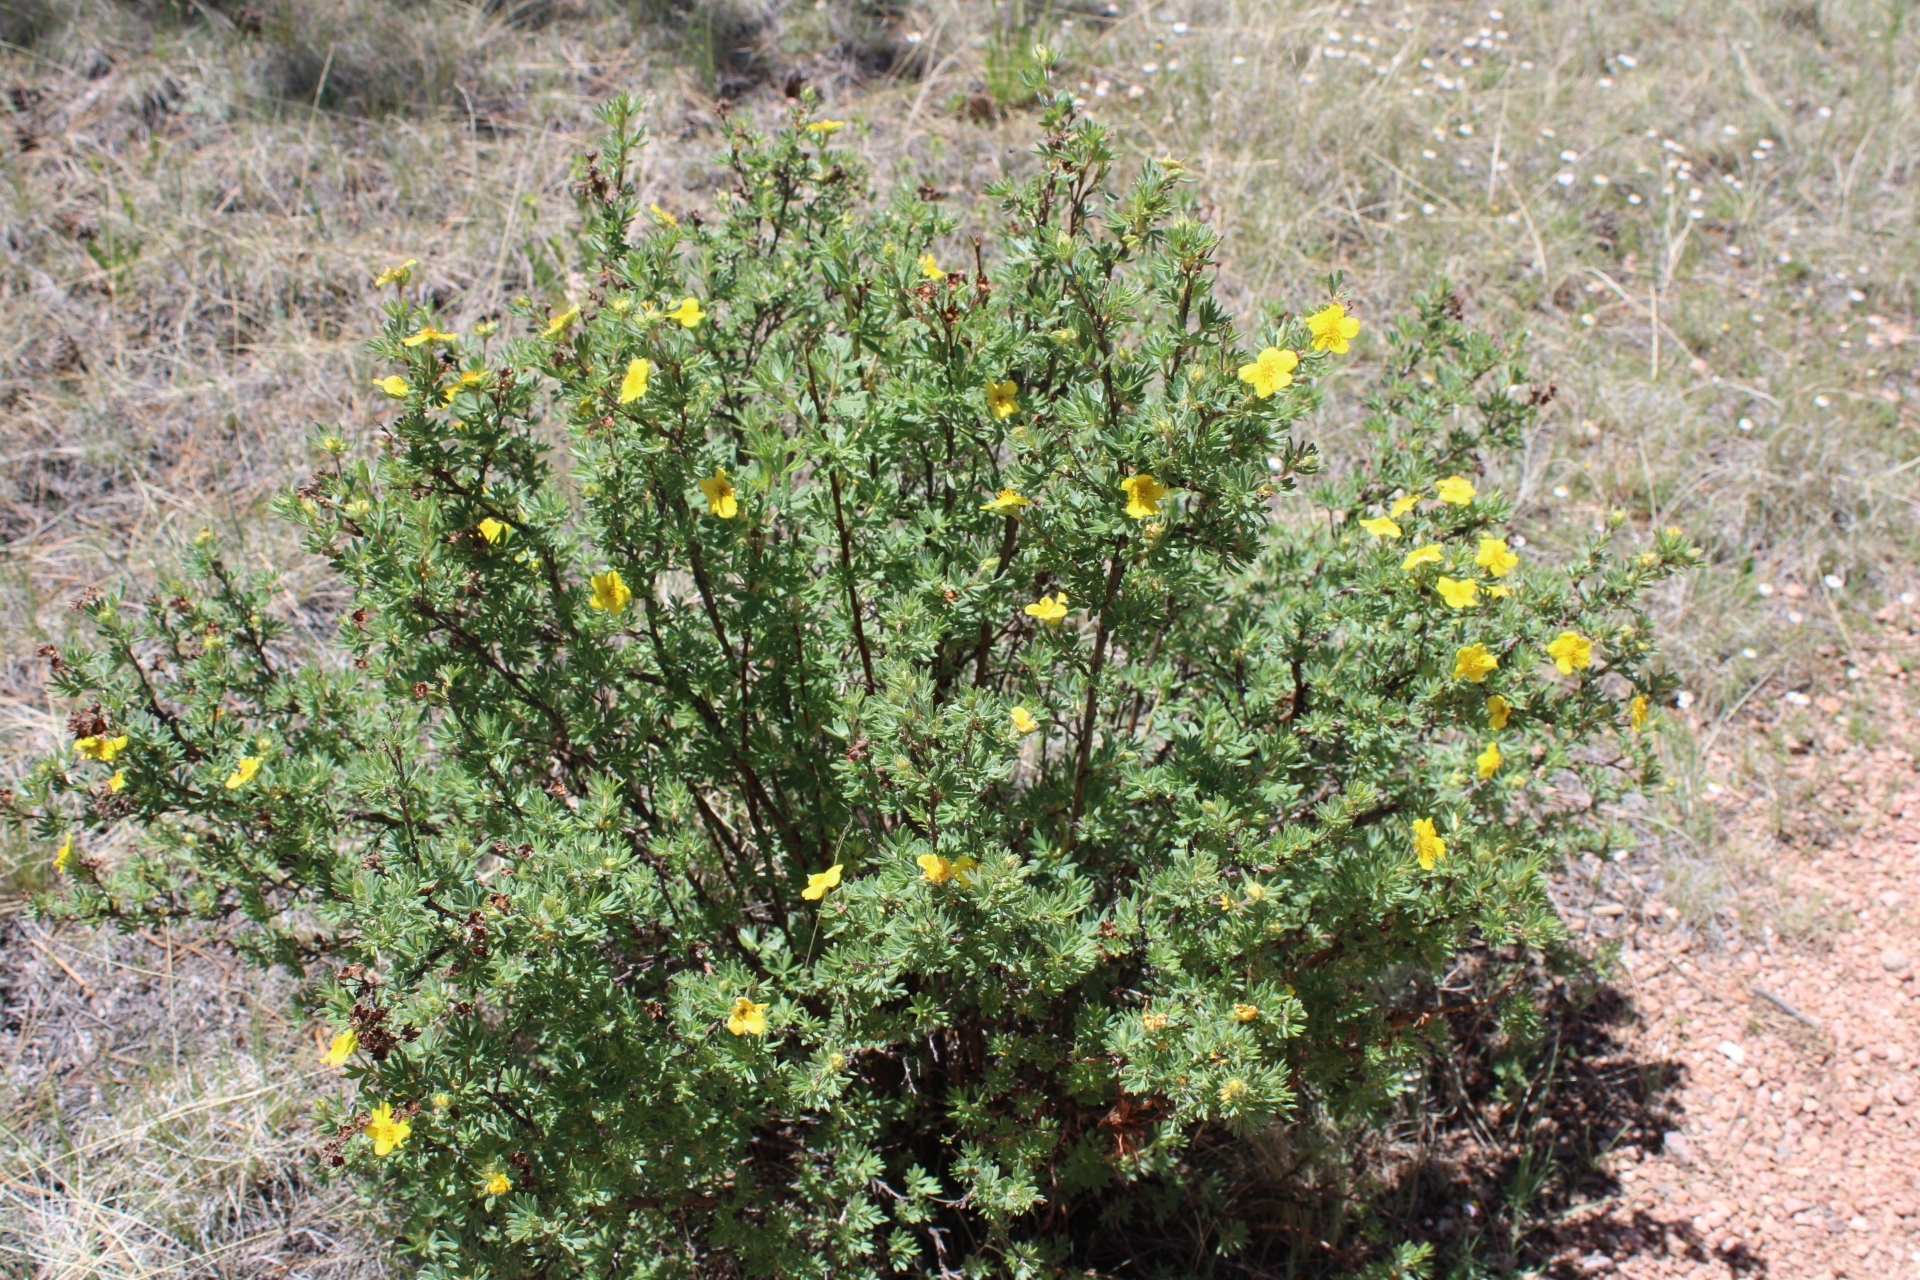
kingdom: Plantae
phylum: Tracheophyta
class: Magnoliopsida
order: Rosales
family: Rosaceae
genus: Dasiphora
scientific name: Dasiphora fruticosa
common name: Shrubby cinquefoil
